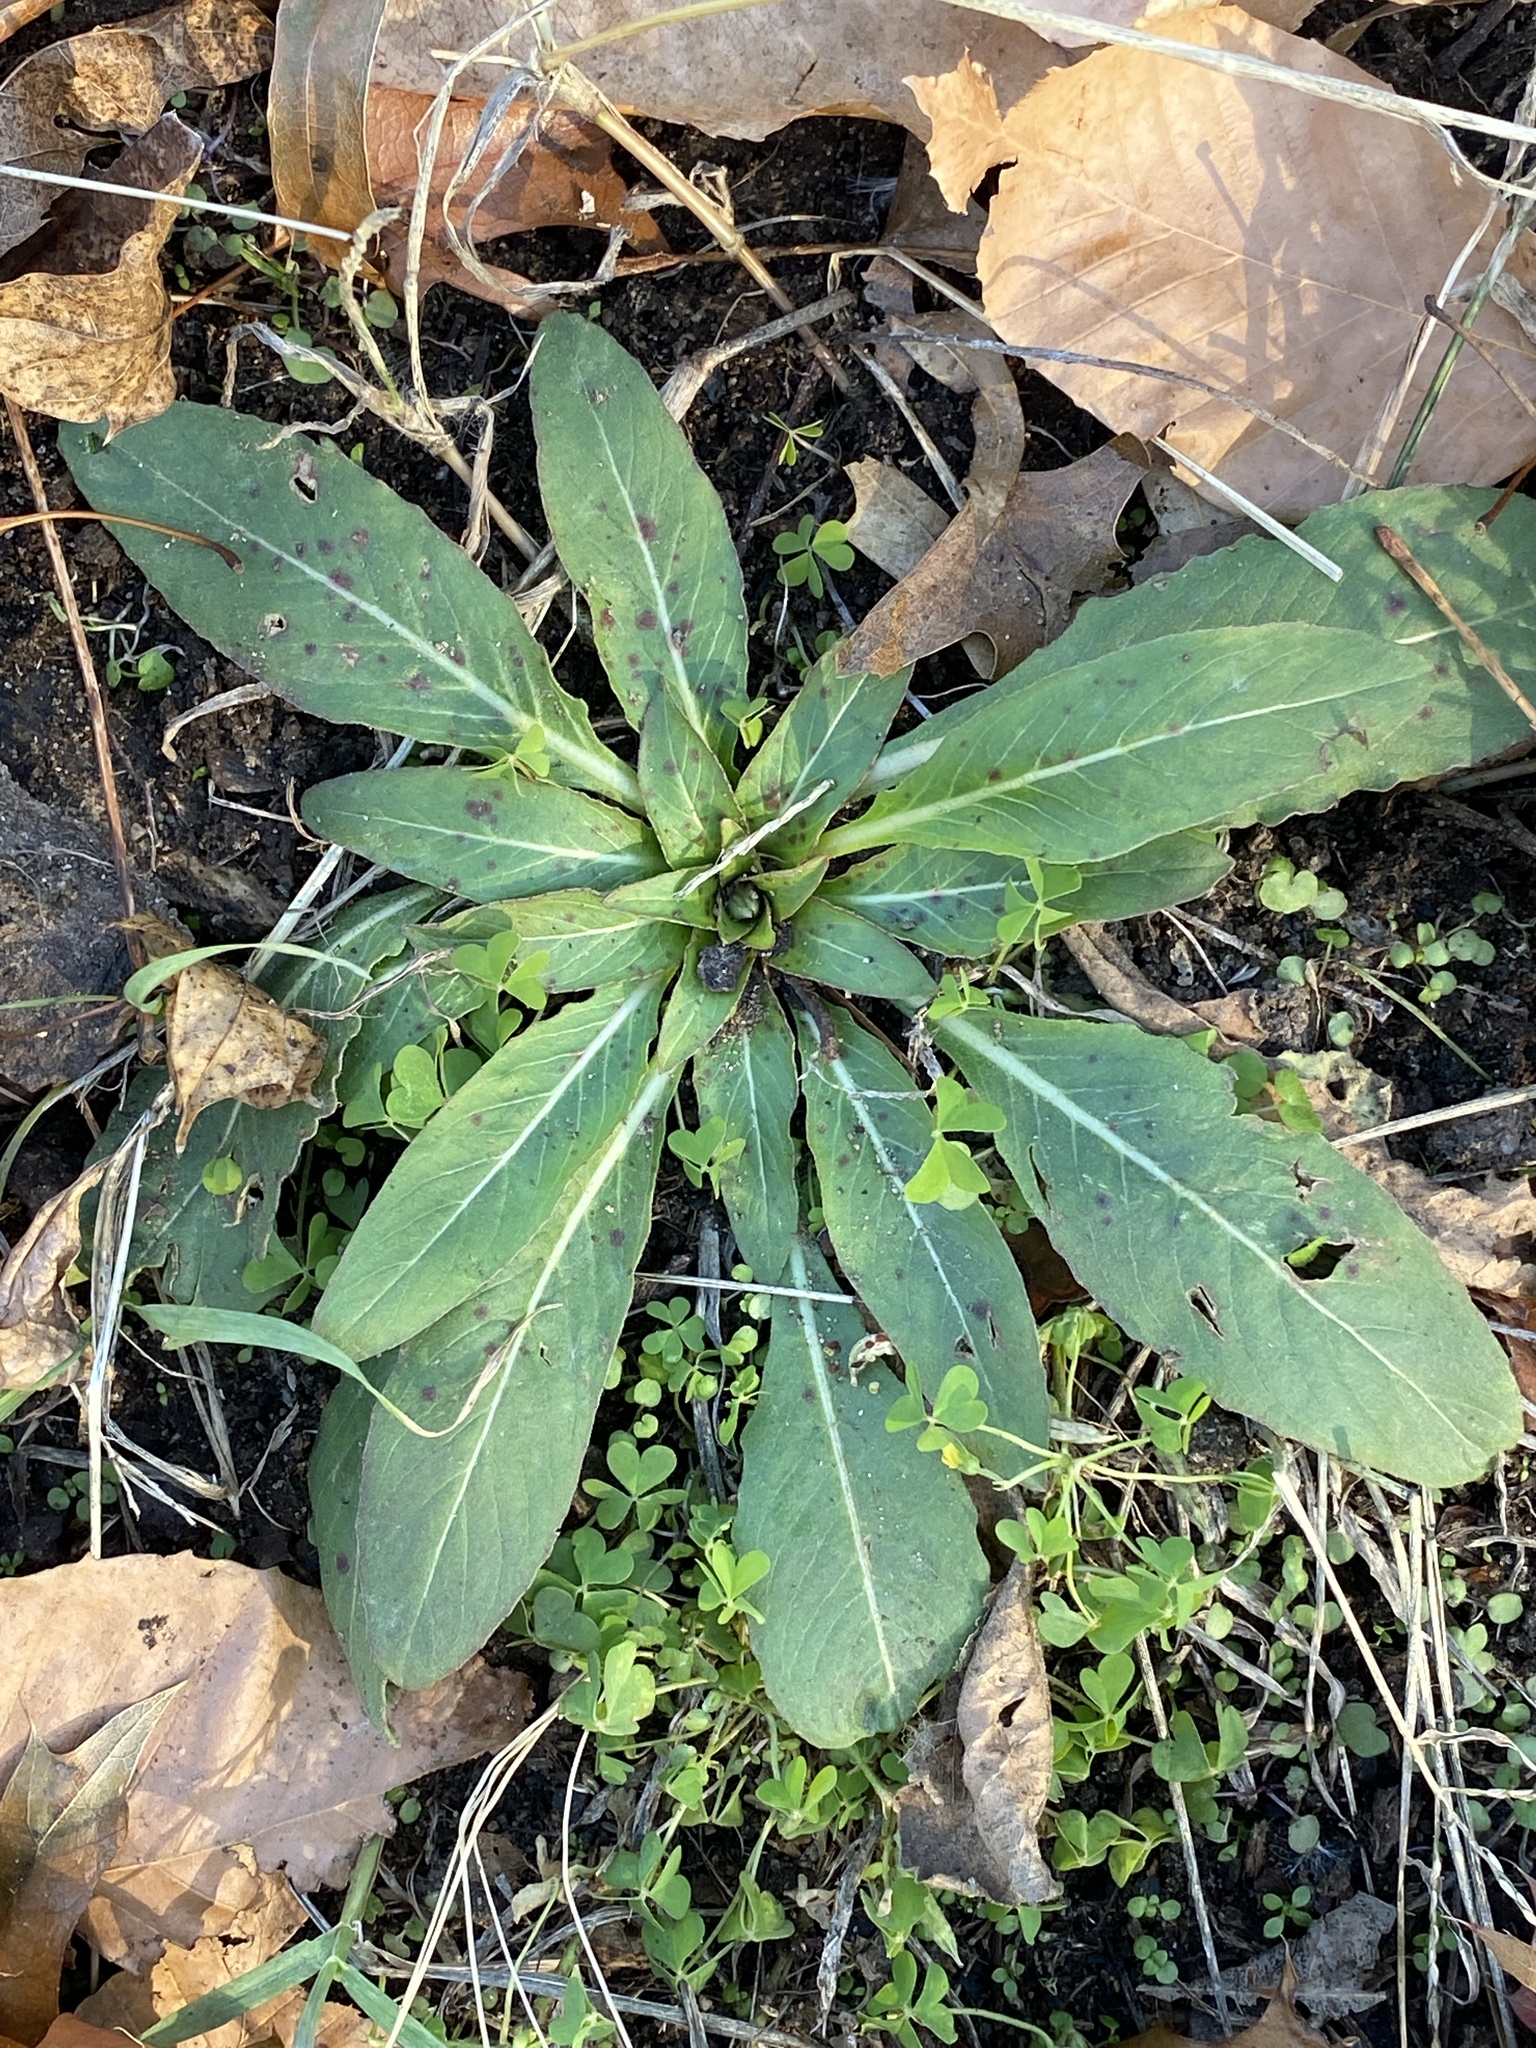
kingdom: Plantae
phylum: Tracheophyta
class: Magnoliopsida
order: Myrtales
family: Onagraceae
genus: Oenothera
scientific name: Oenothera biennis
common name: Common evening-primrose
